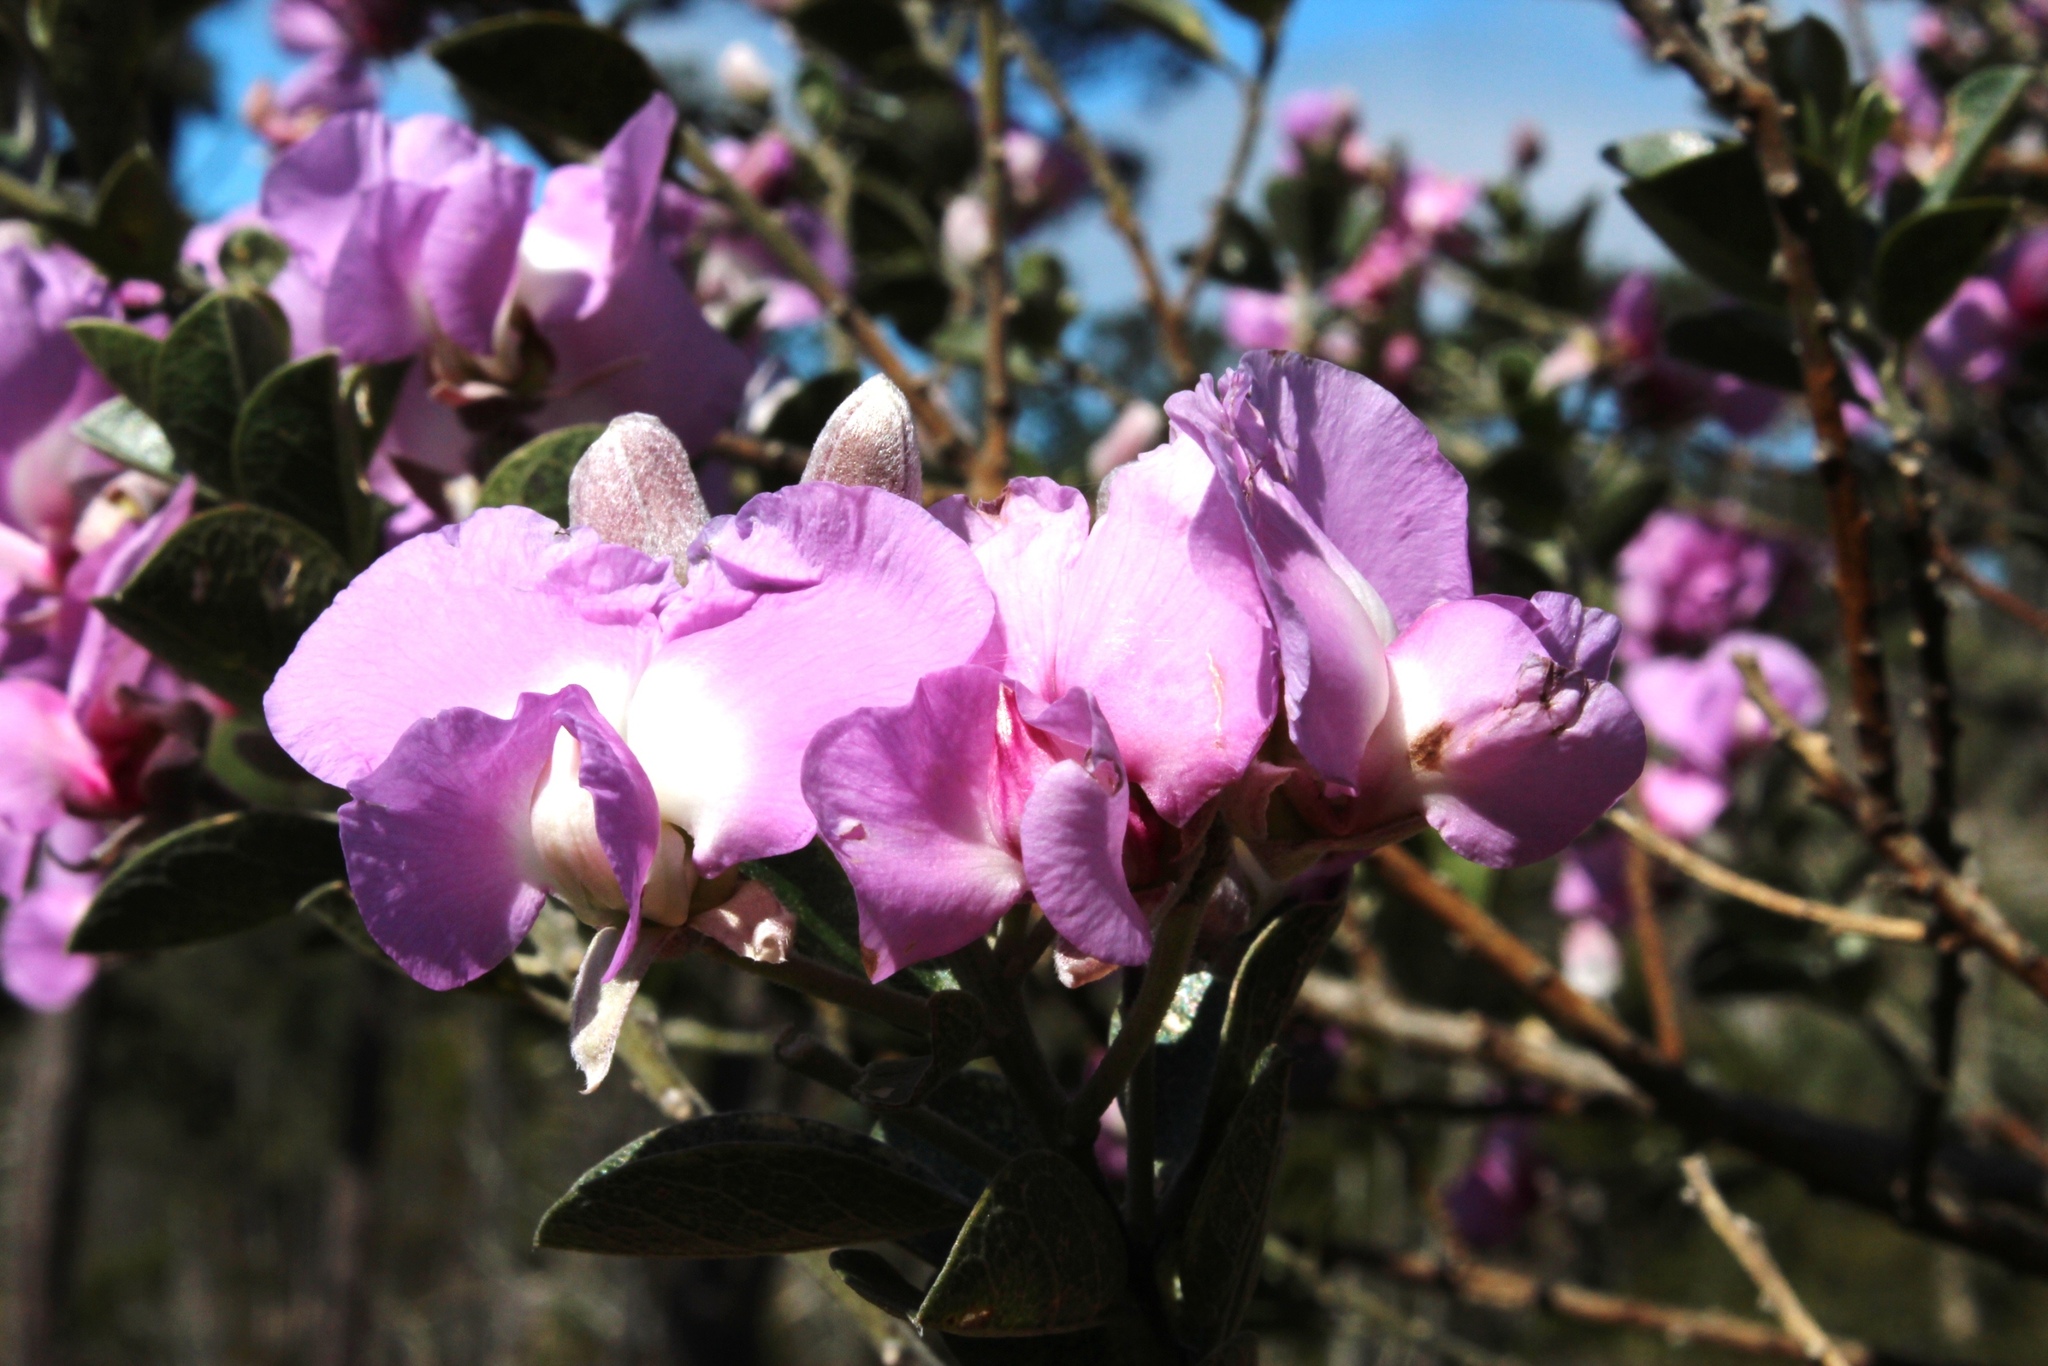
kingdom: Plantae
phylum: Tracheophyta
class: Magnoliopsida
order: Fabales
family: Fabaceae
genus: Podalyria
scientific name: Podalyria calyptrata
